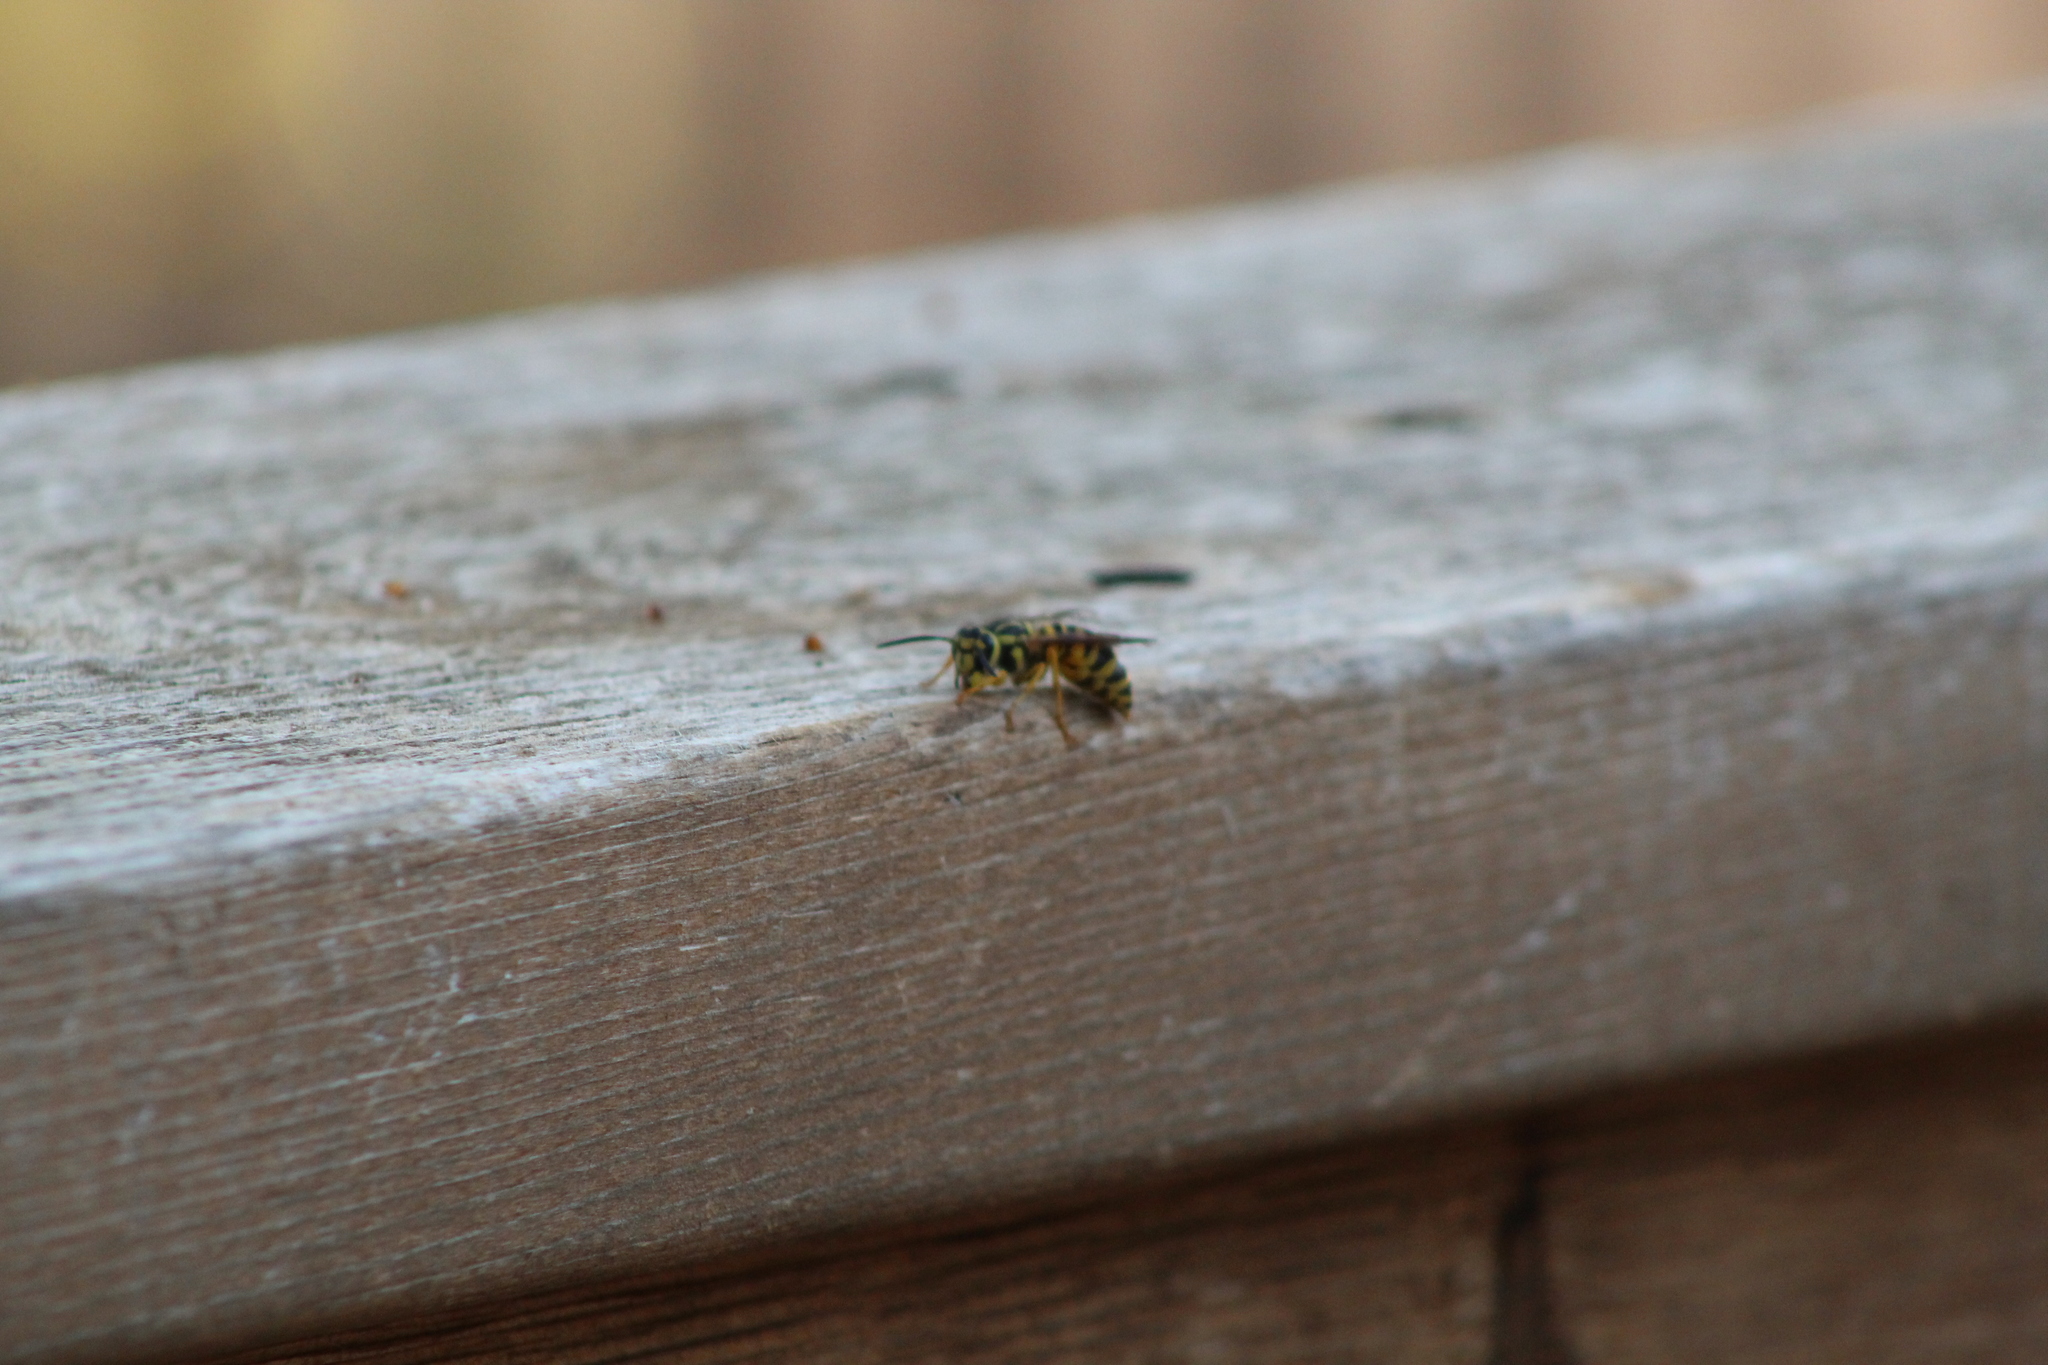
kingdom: Animalia
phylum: Arthropoda
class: Insecta
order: Hymenoptera
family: Vespidae
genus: Vespula
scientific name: Vespula squamosa
